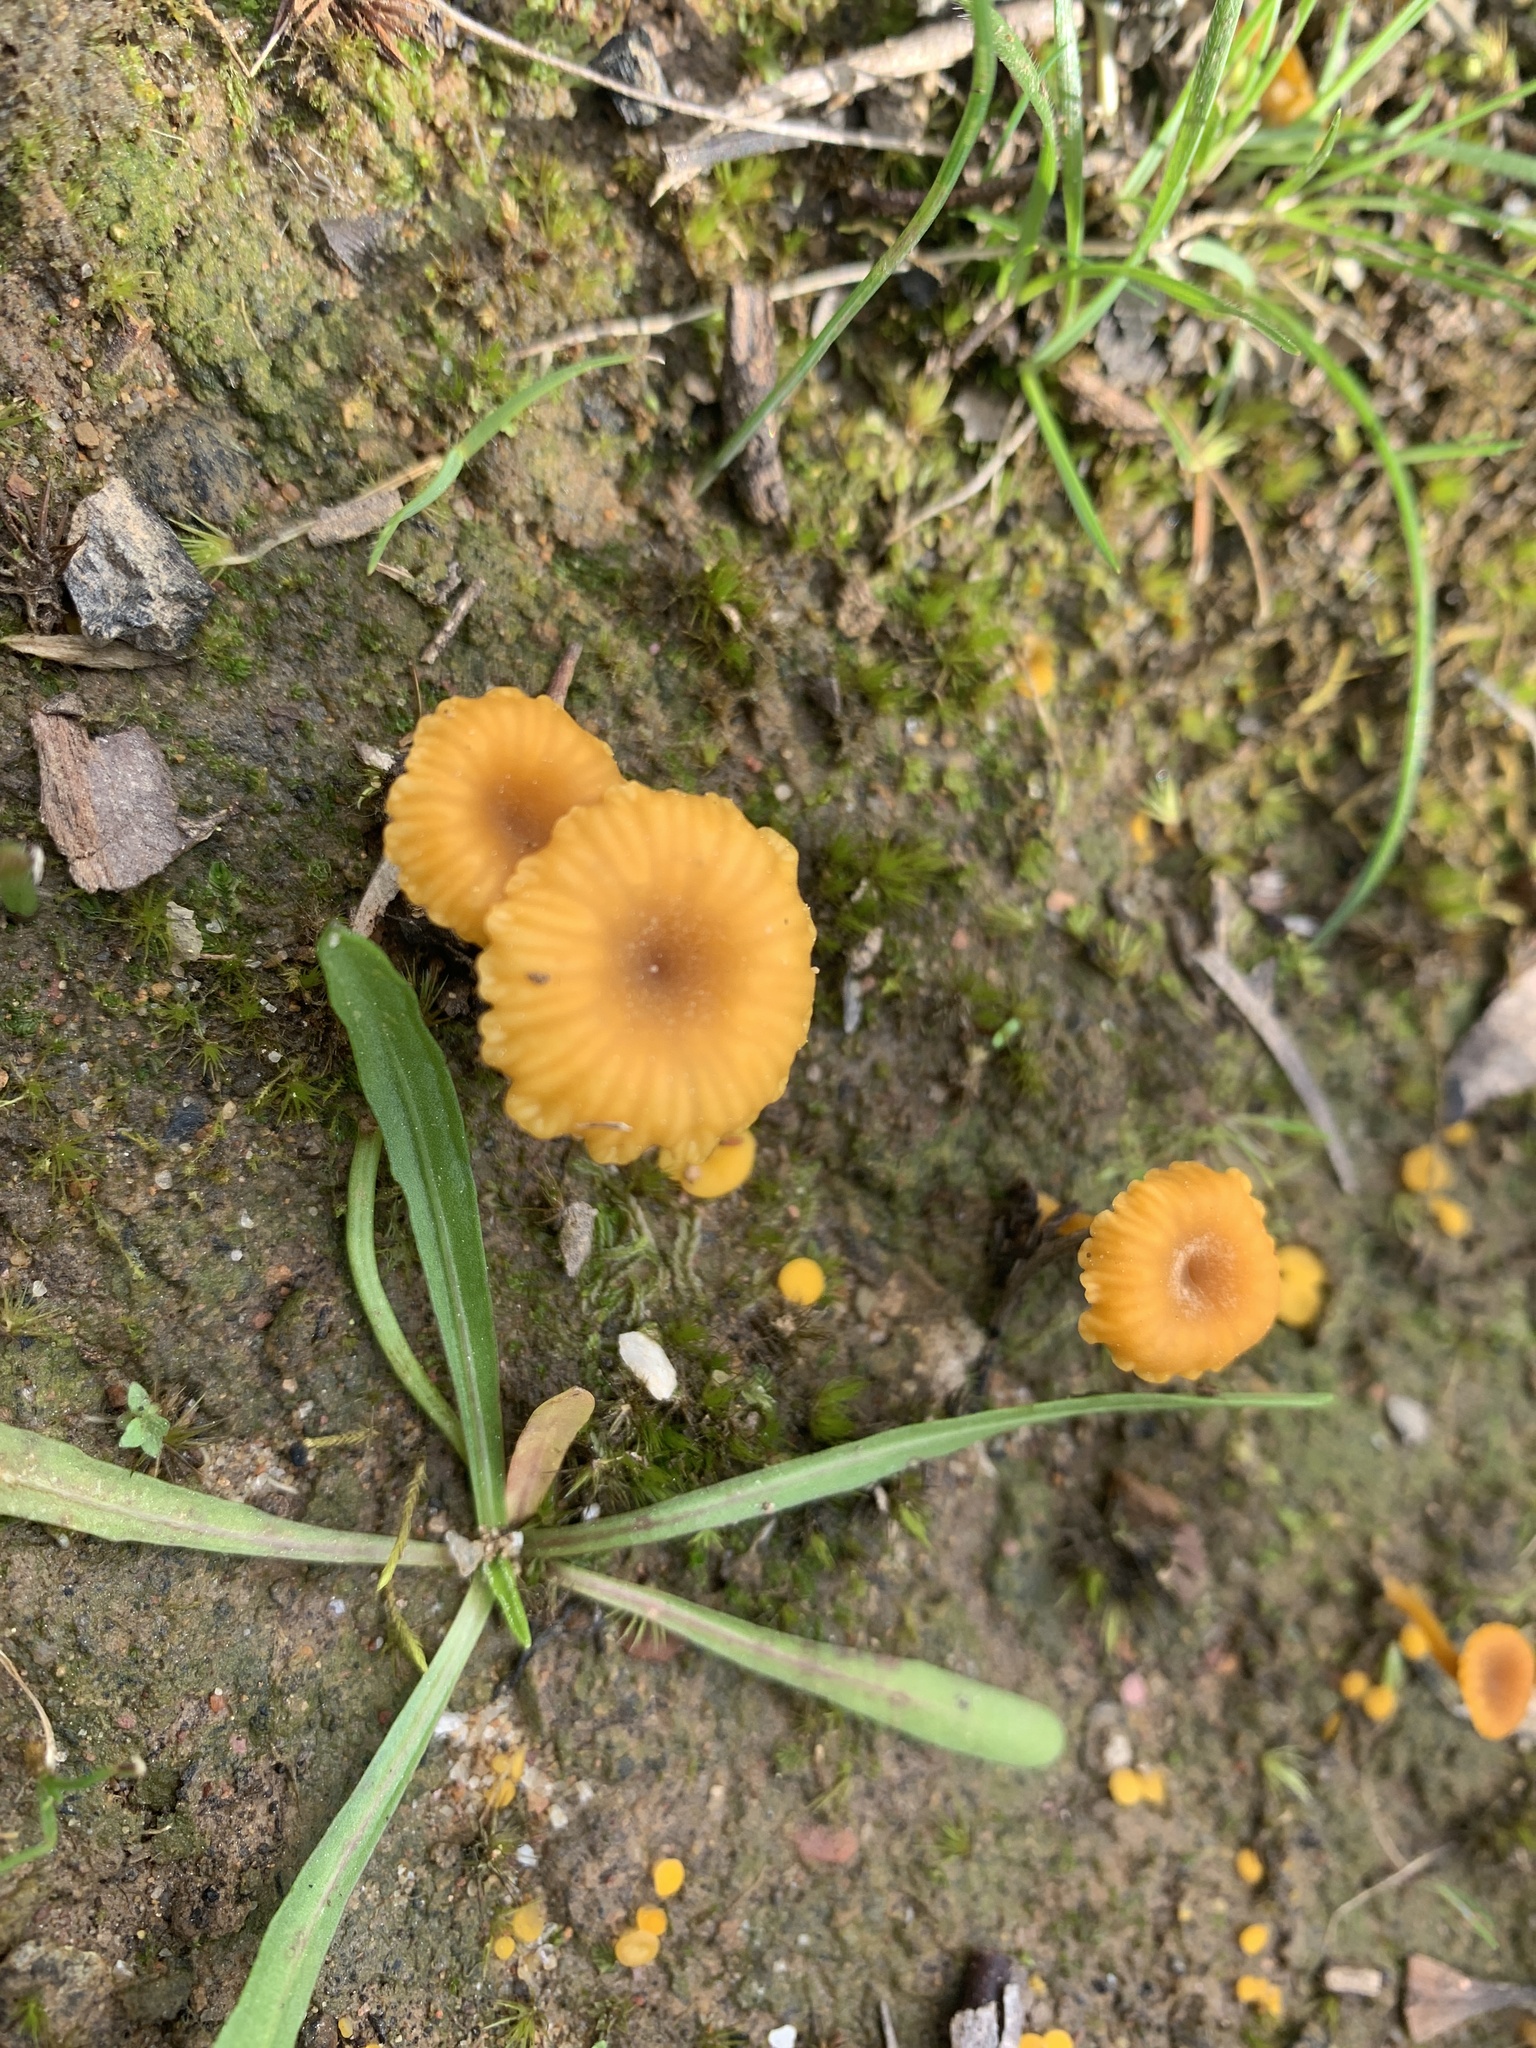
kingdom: Fungi
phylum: Basidiomycota
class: Agaricomycetes
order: Agaricales
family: Hygrophoraceae
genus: Lichenomphalia
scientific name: Lichenomphalia chromacea
